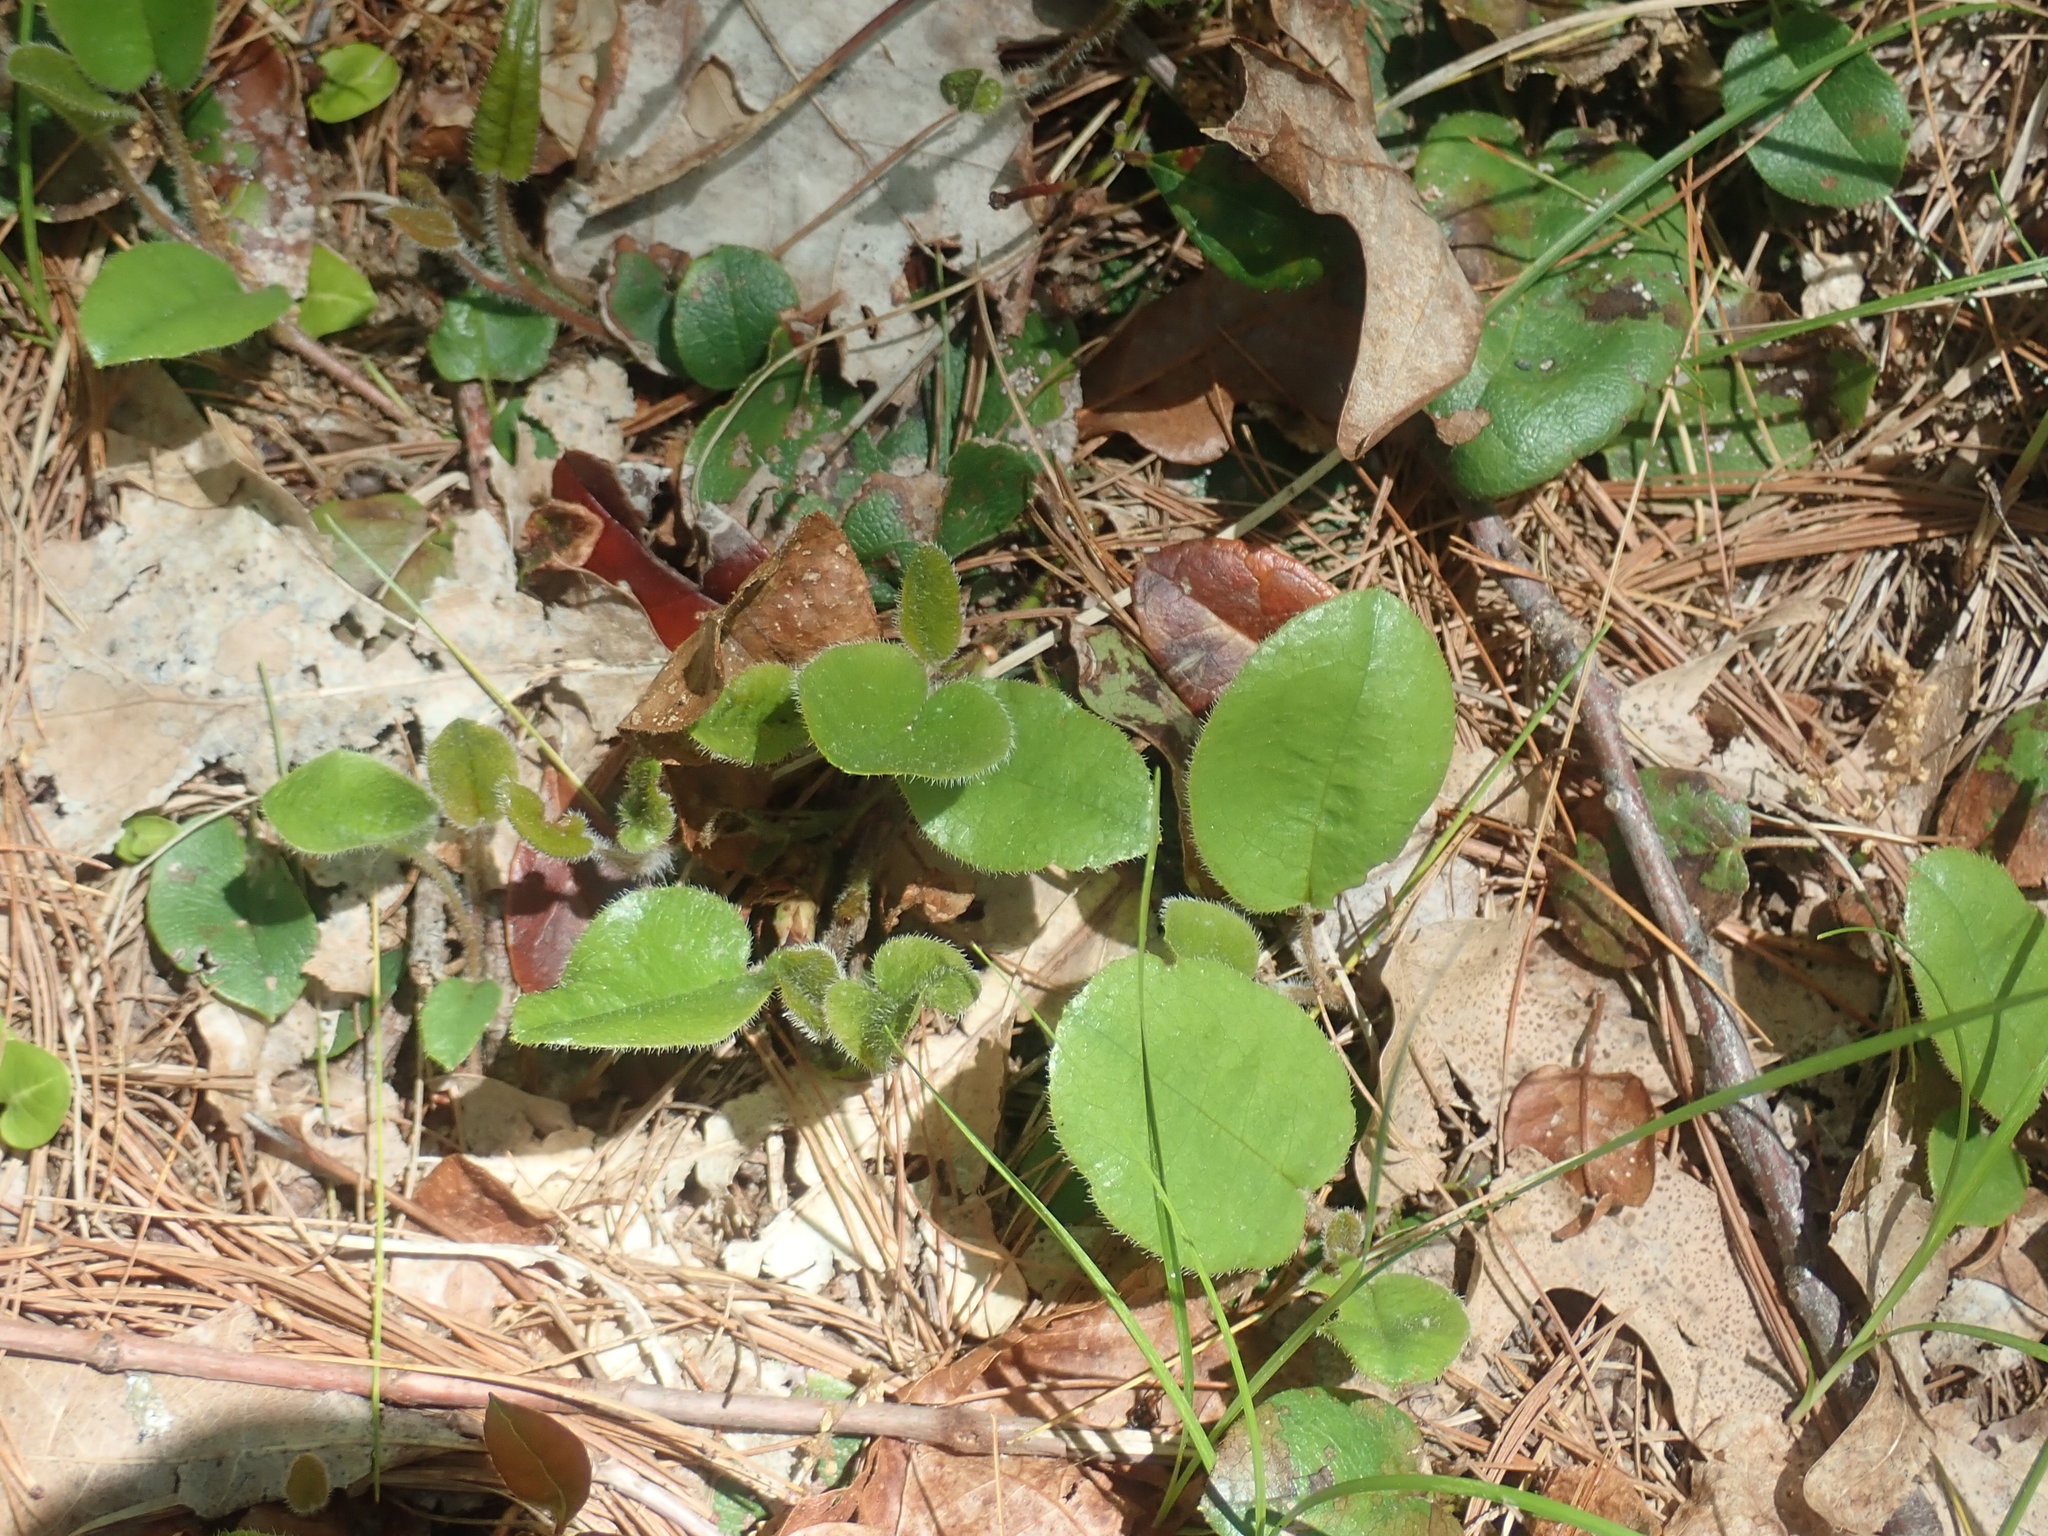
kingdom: Plantae
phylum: Tracheophyta
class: Magnoliopsida
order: Ericales
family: Ericaceae
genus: Epigaea
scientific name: Epigaea repens
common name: Gravelroot
